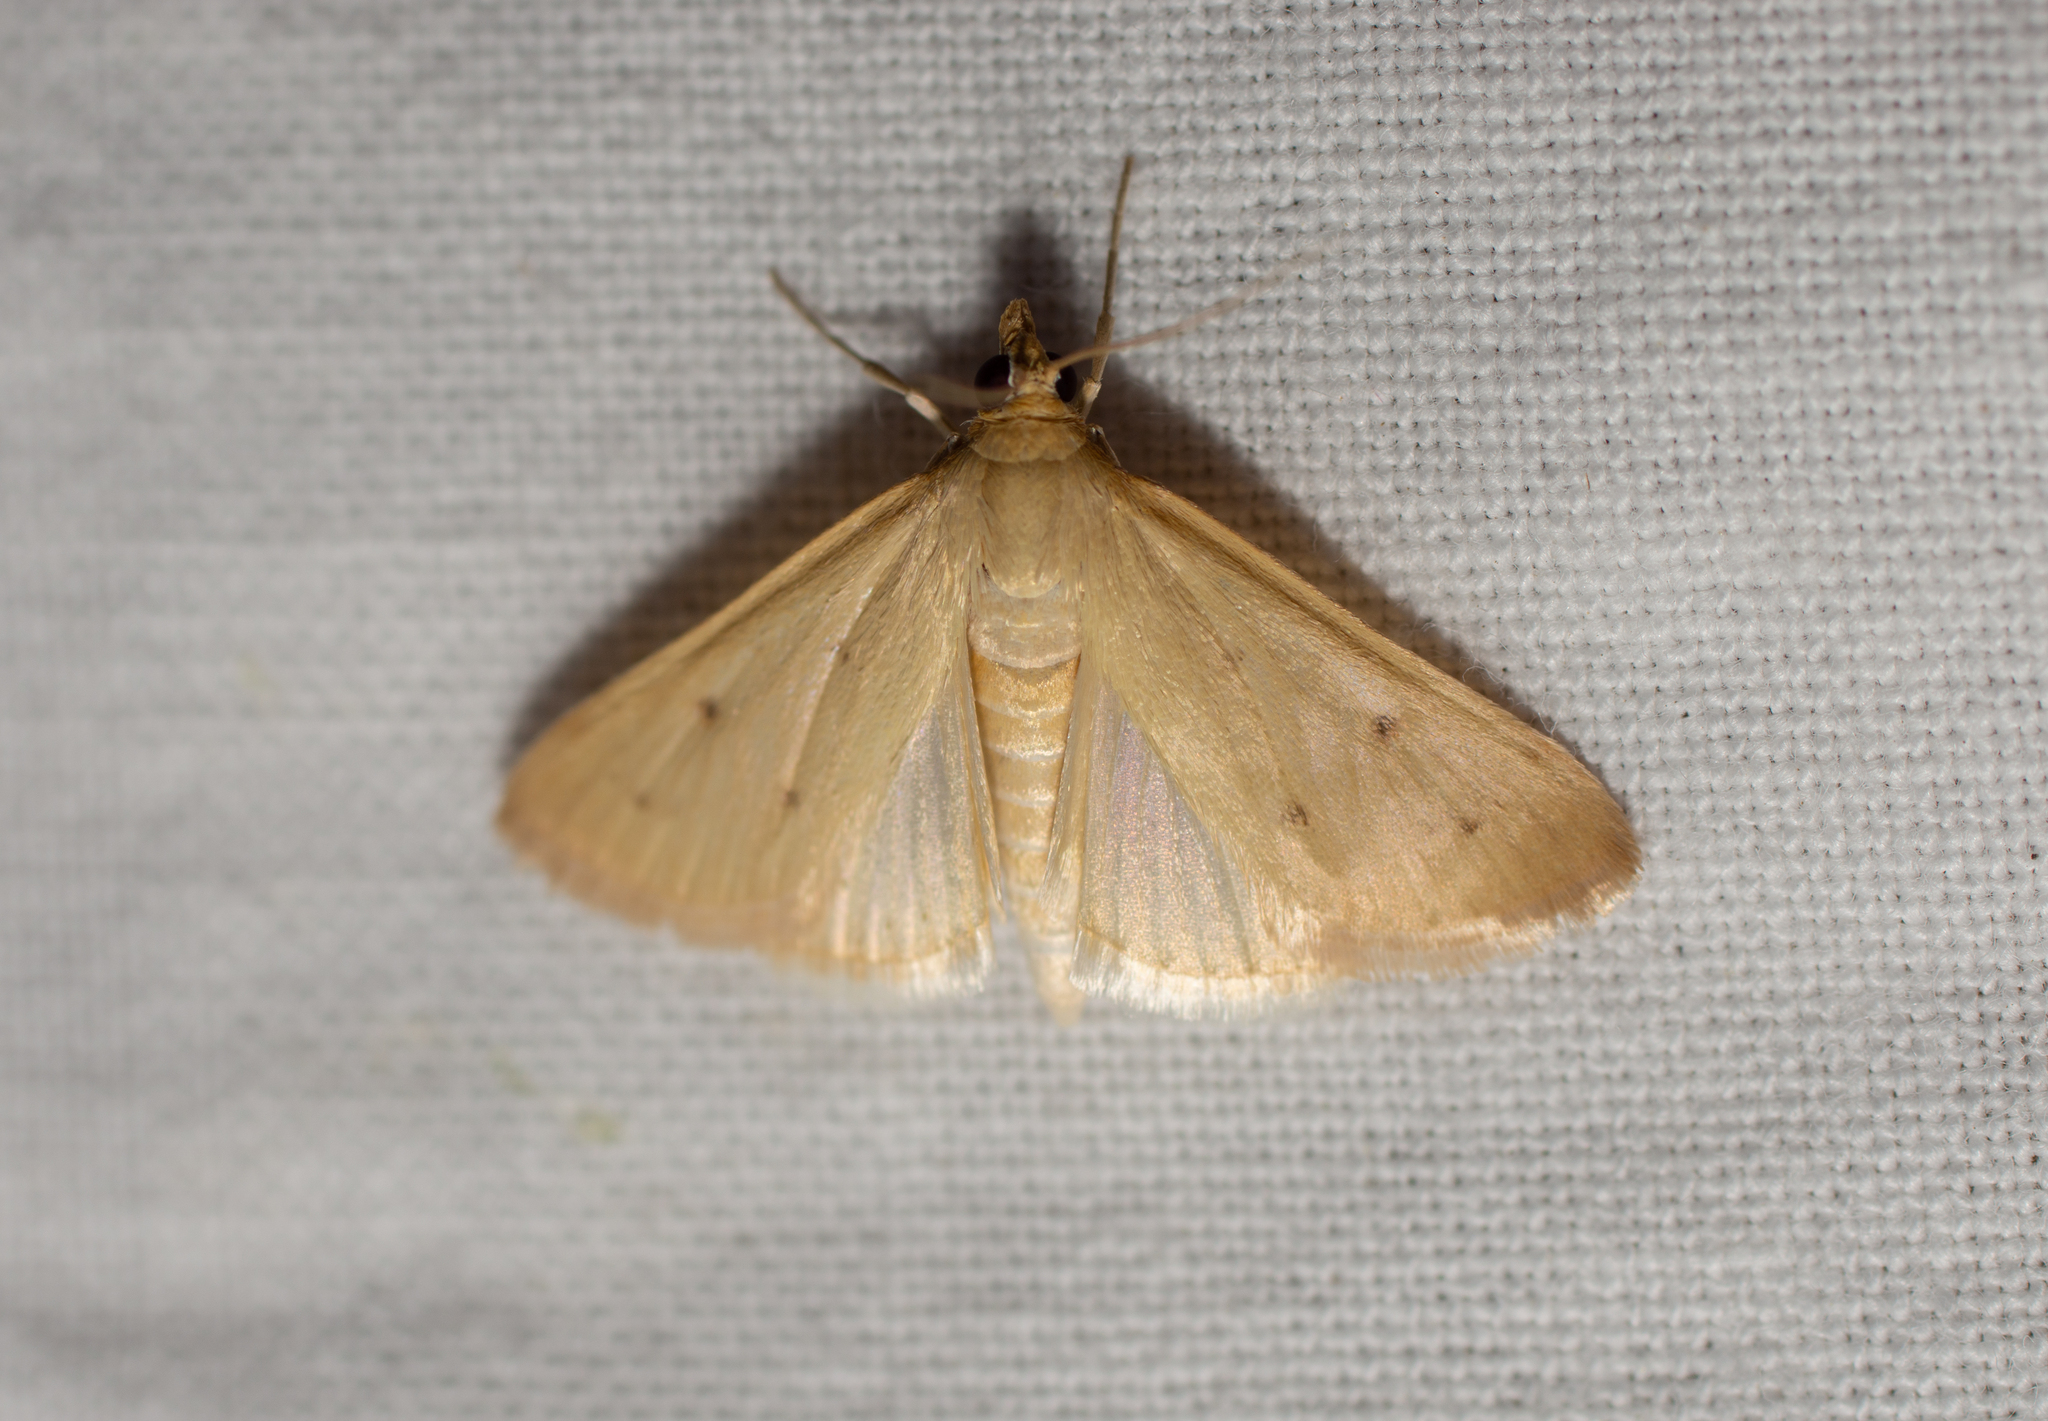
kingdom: Animalia
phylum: Arthropoda
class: Insecta
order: Lepidoptera
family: Crambidae
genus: Achyra
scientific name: Achyra nudalis
